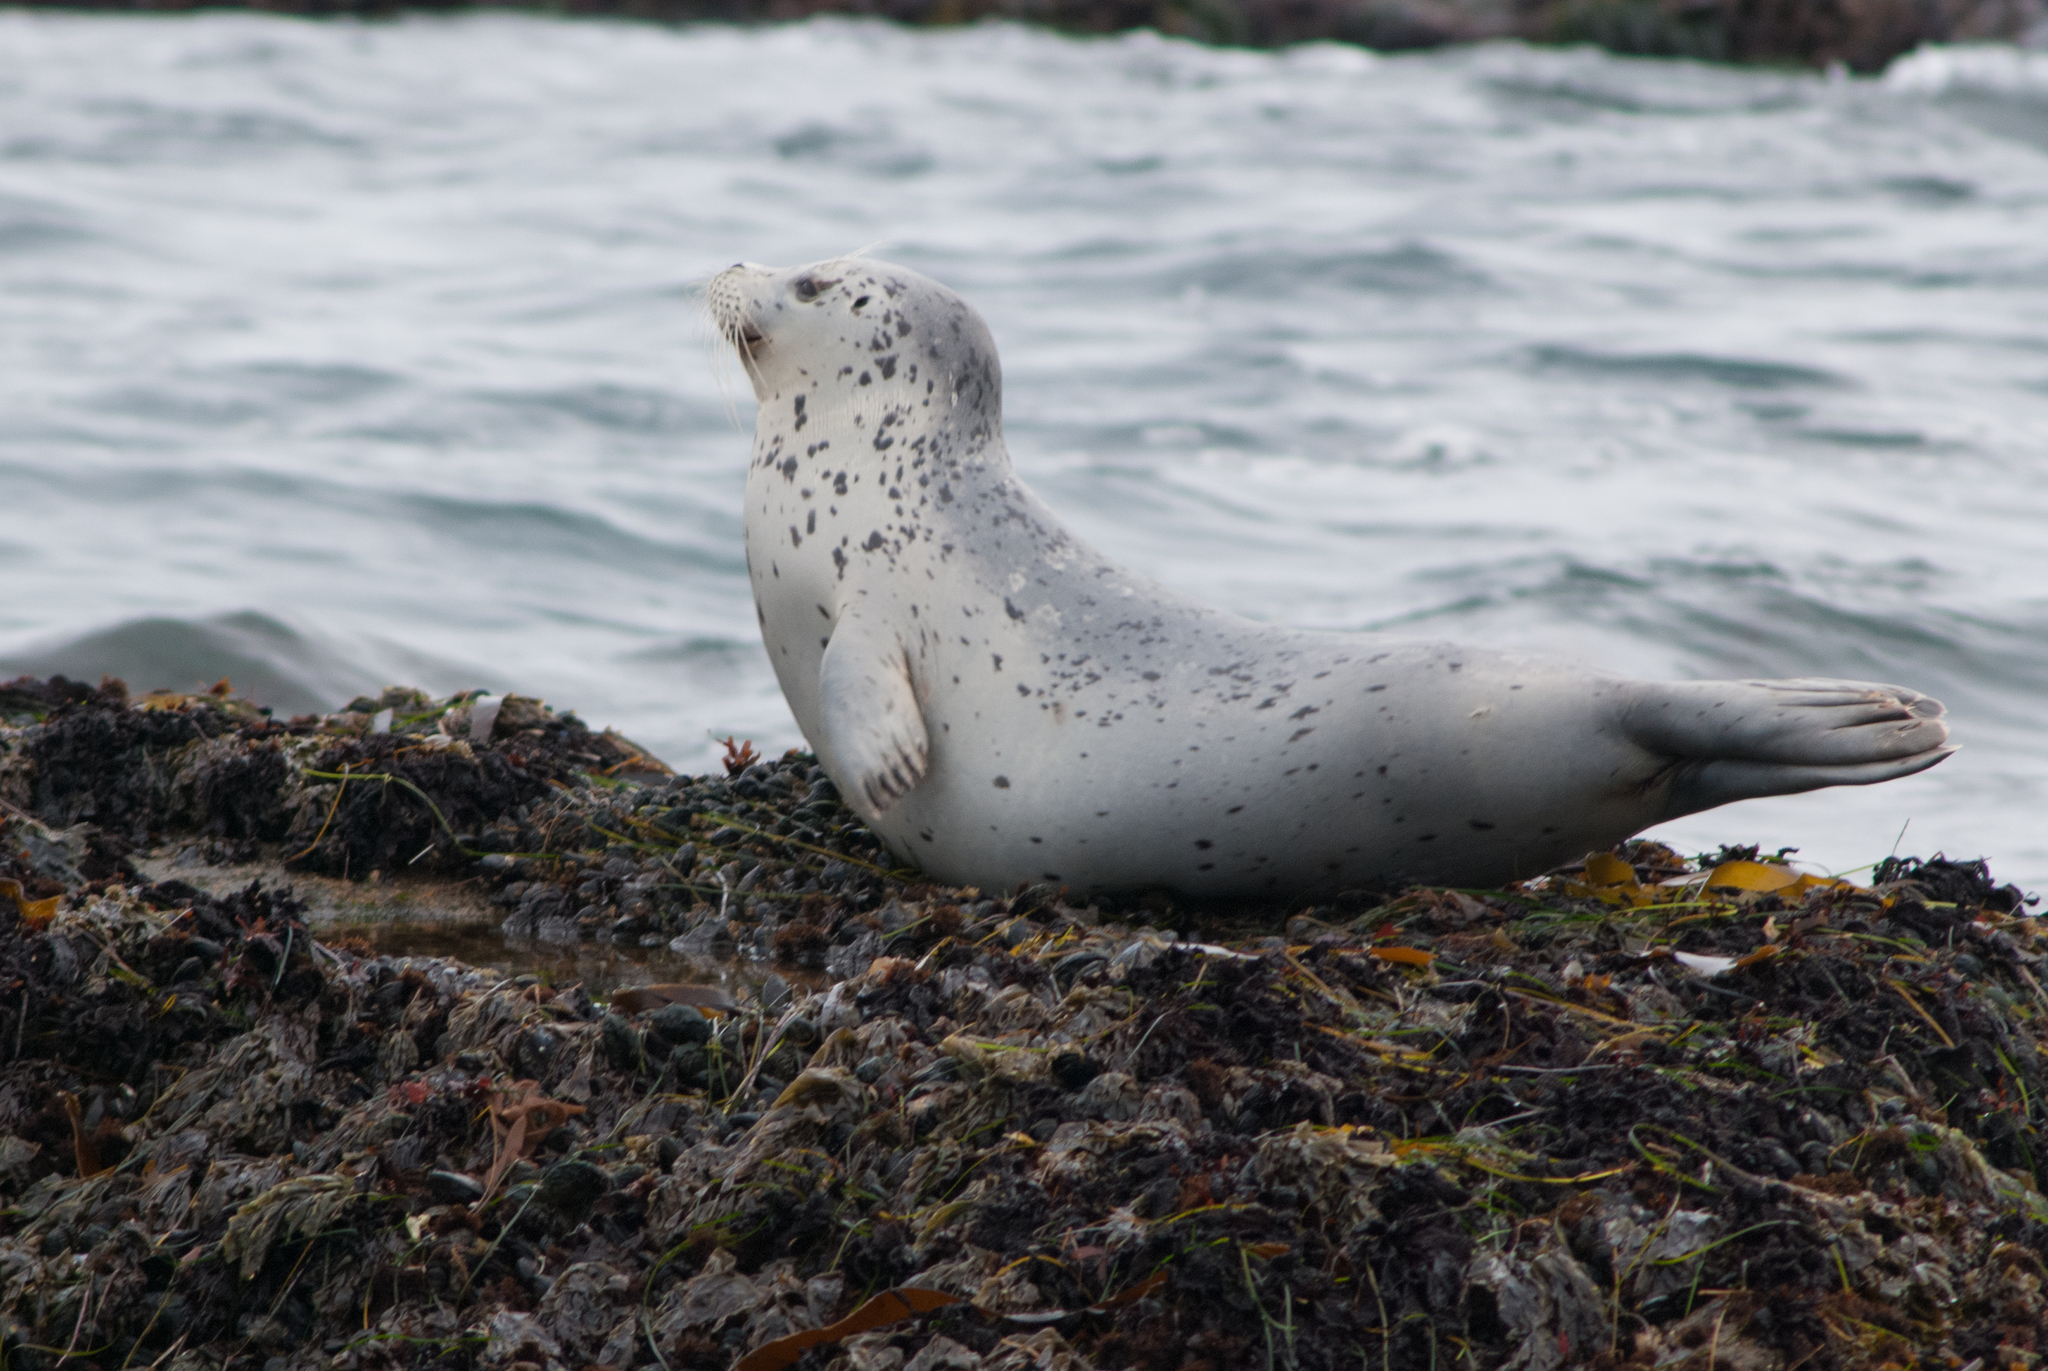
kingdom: Animalia
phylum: Chordata
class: Mammalia
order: Carnivora
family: Phocidae
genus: Phoca
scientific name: Phoca vitulina
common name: Harbor seal
